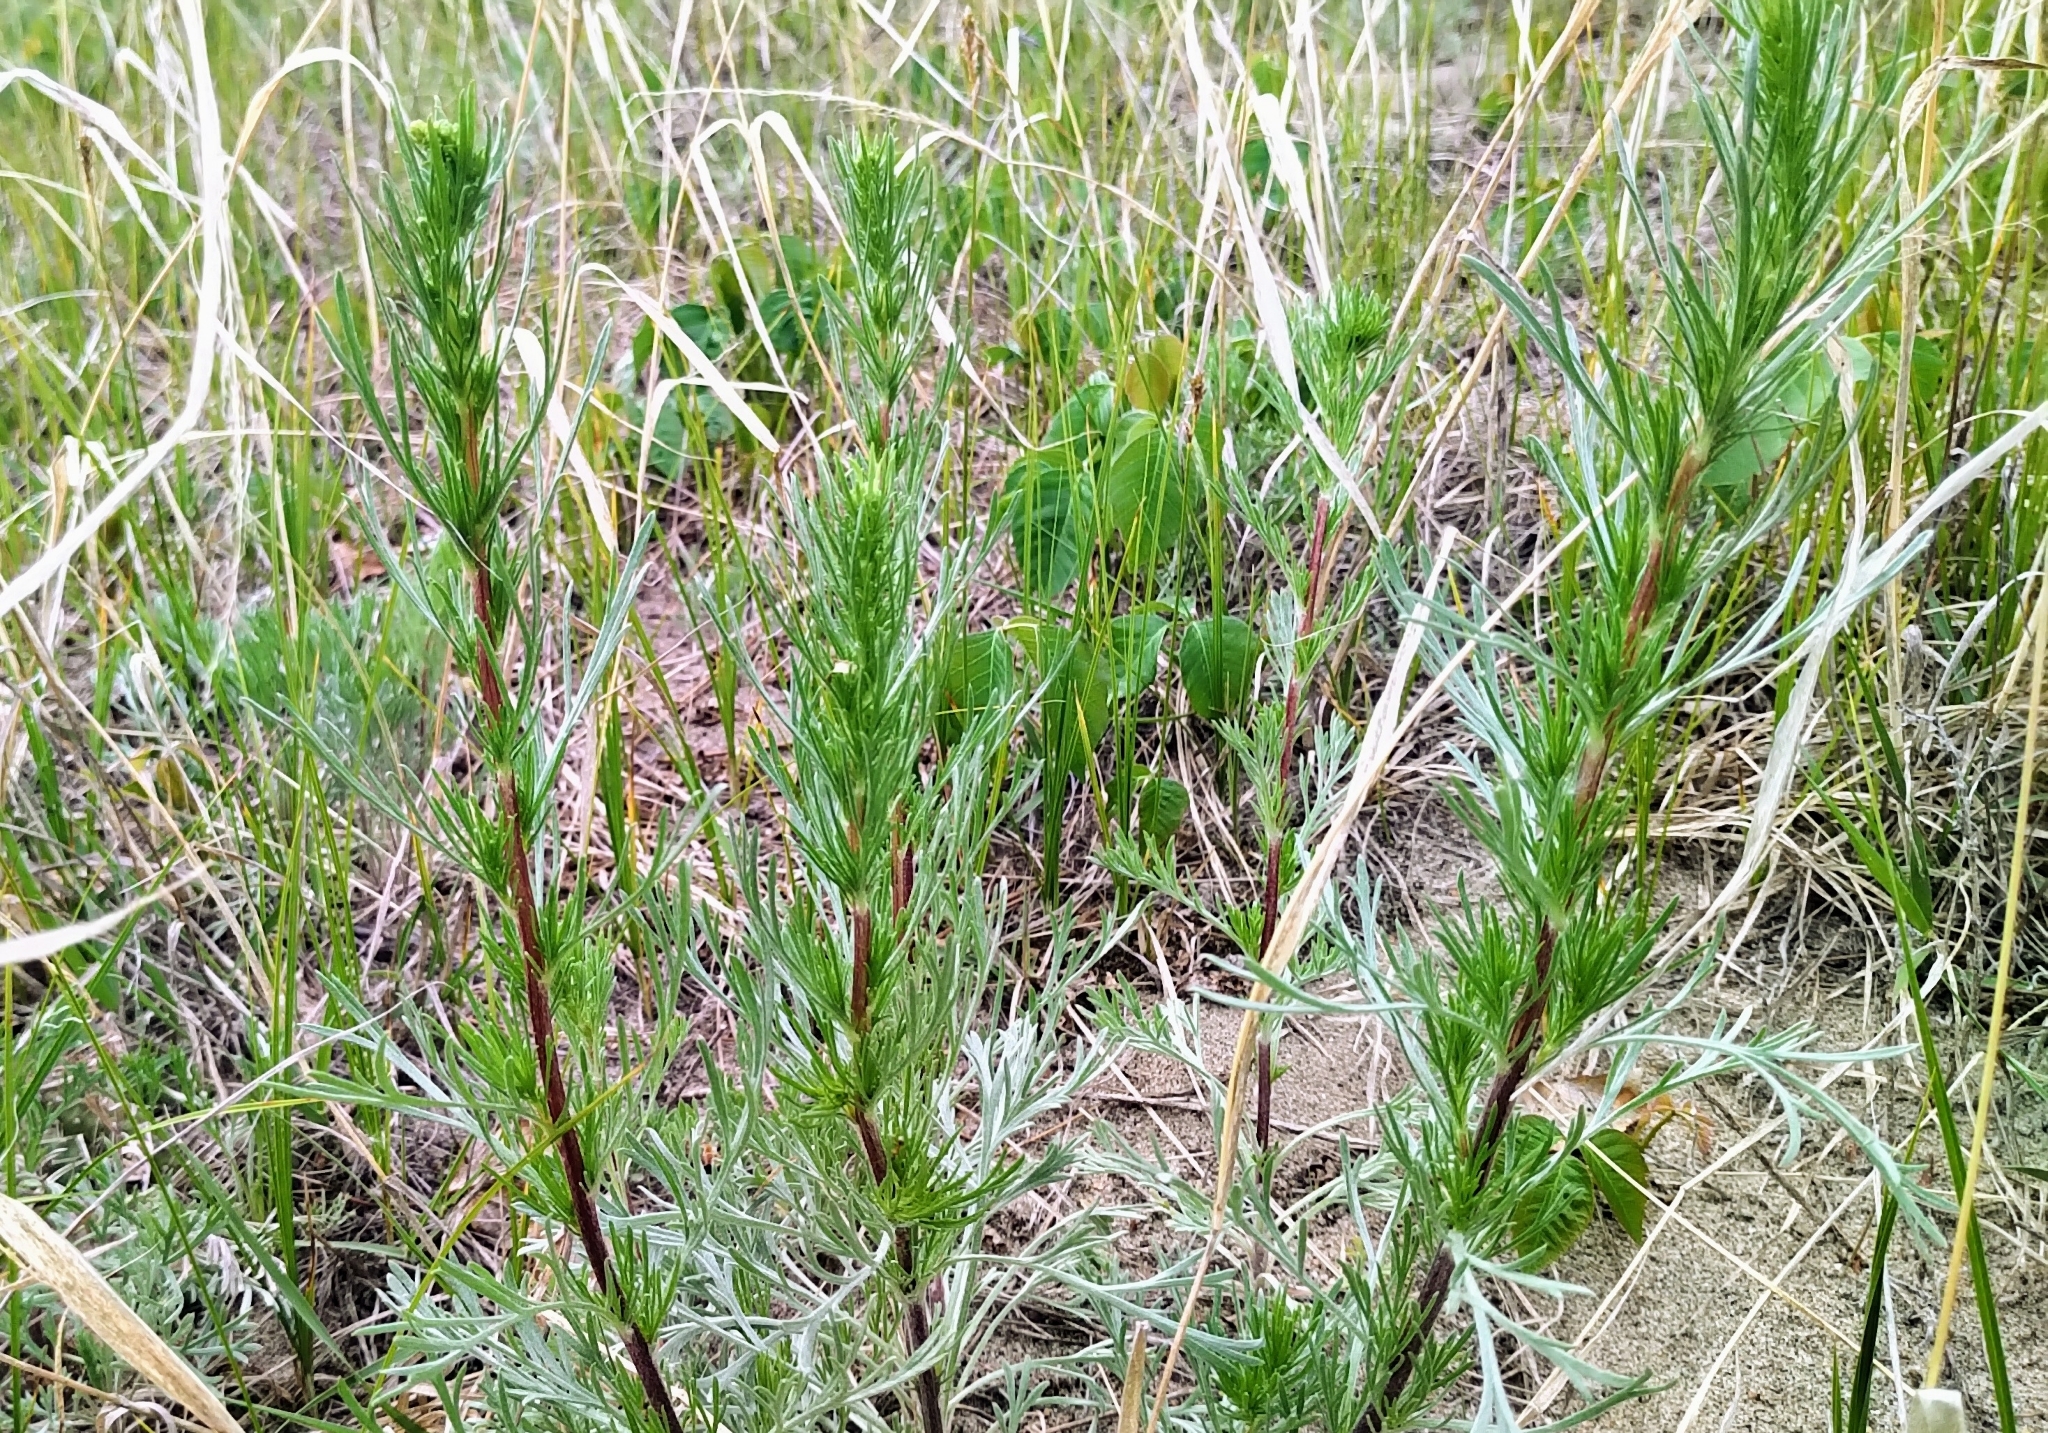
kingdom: Plantae
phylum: Tracheophyta
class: Magnoliopsida
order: Asterales
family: Asteraceae
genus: Artemisia
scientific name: Artemisia campestris
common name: Field wormwood
